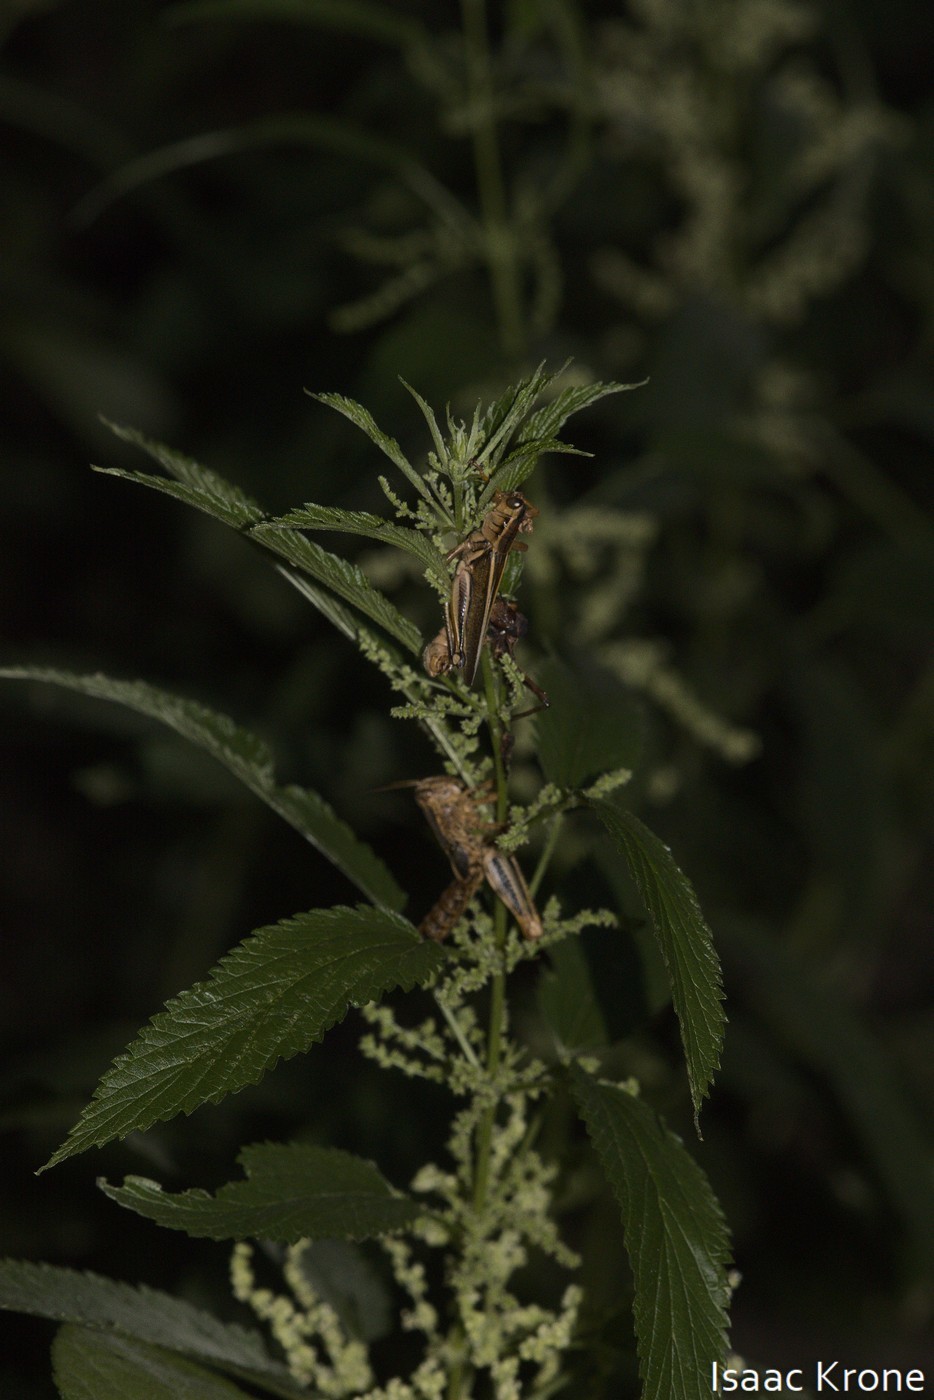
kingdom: Animalia
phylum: Arthropoda
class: Insecta
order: Orthoptera
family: Acrididae
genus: Melanoplus
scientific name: Melanoplus bivittatus
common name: Two-striped grasshopper
